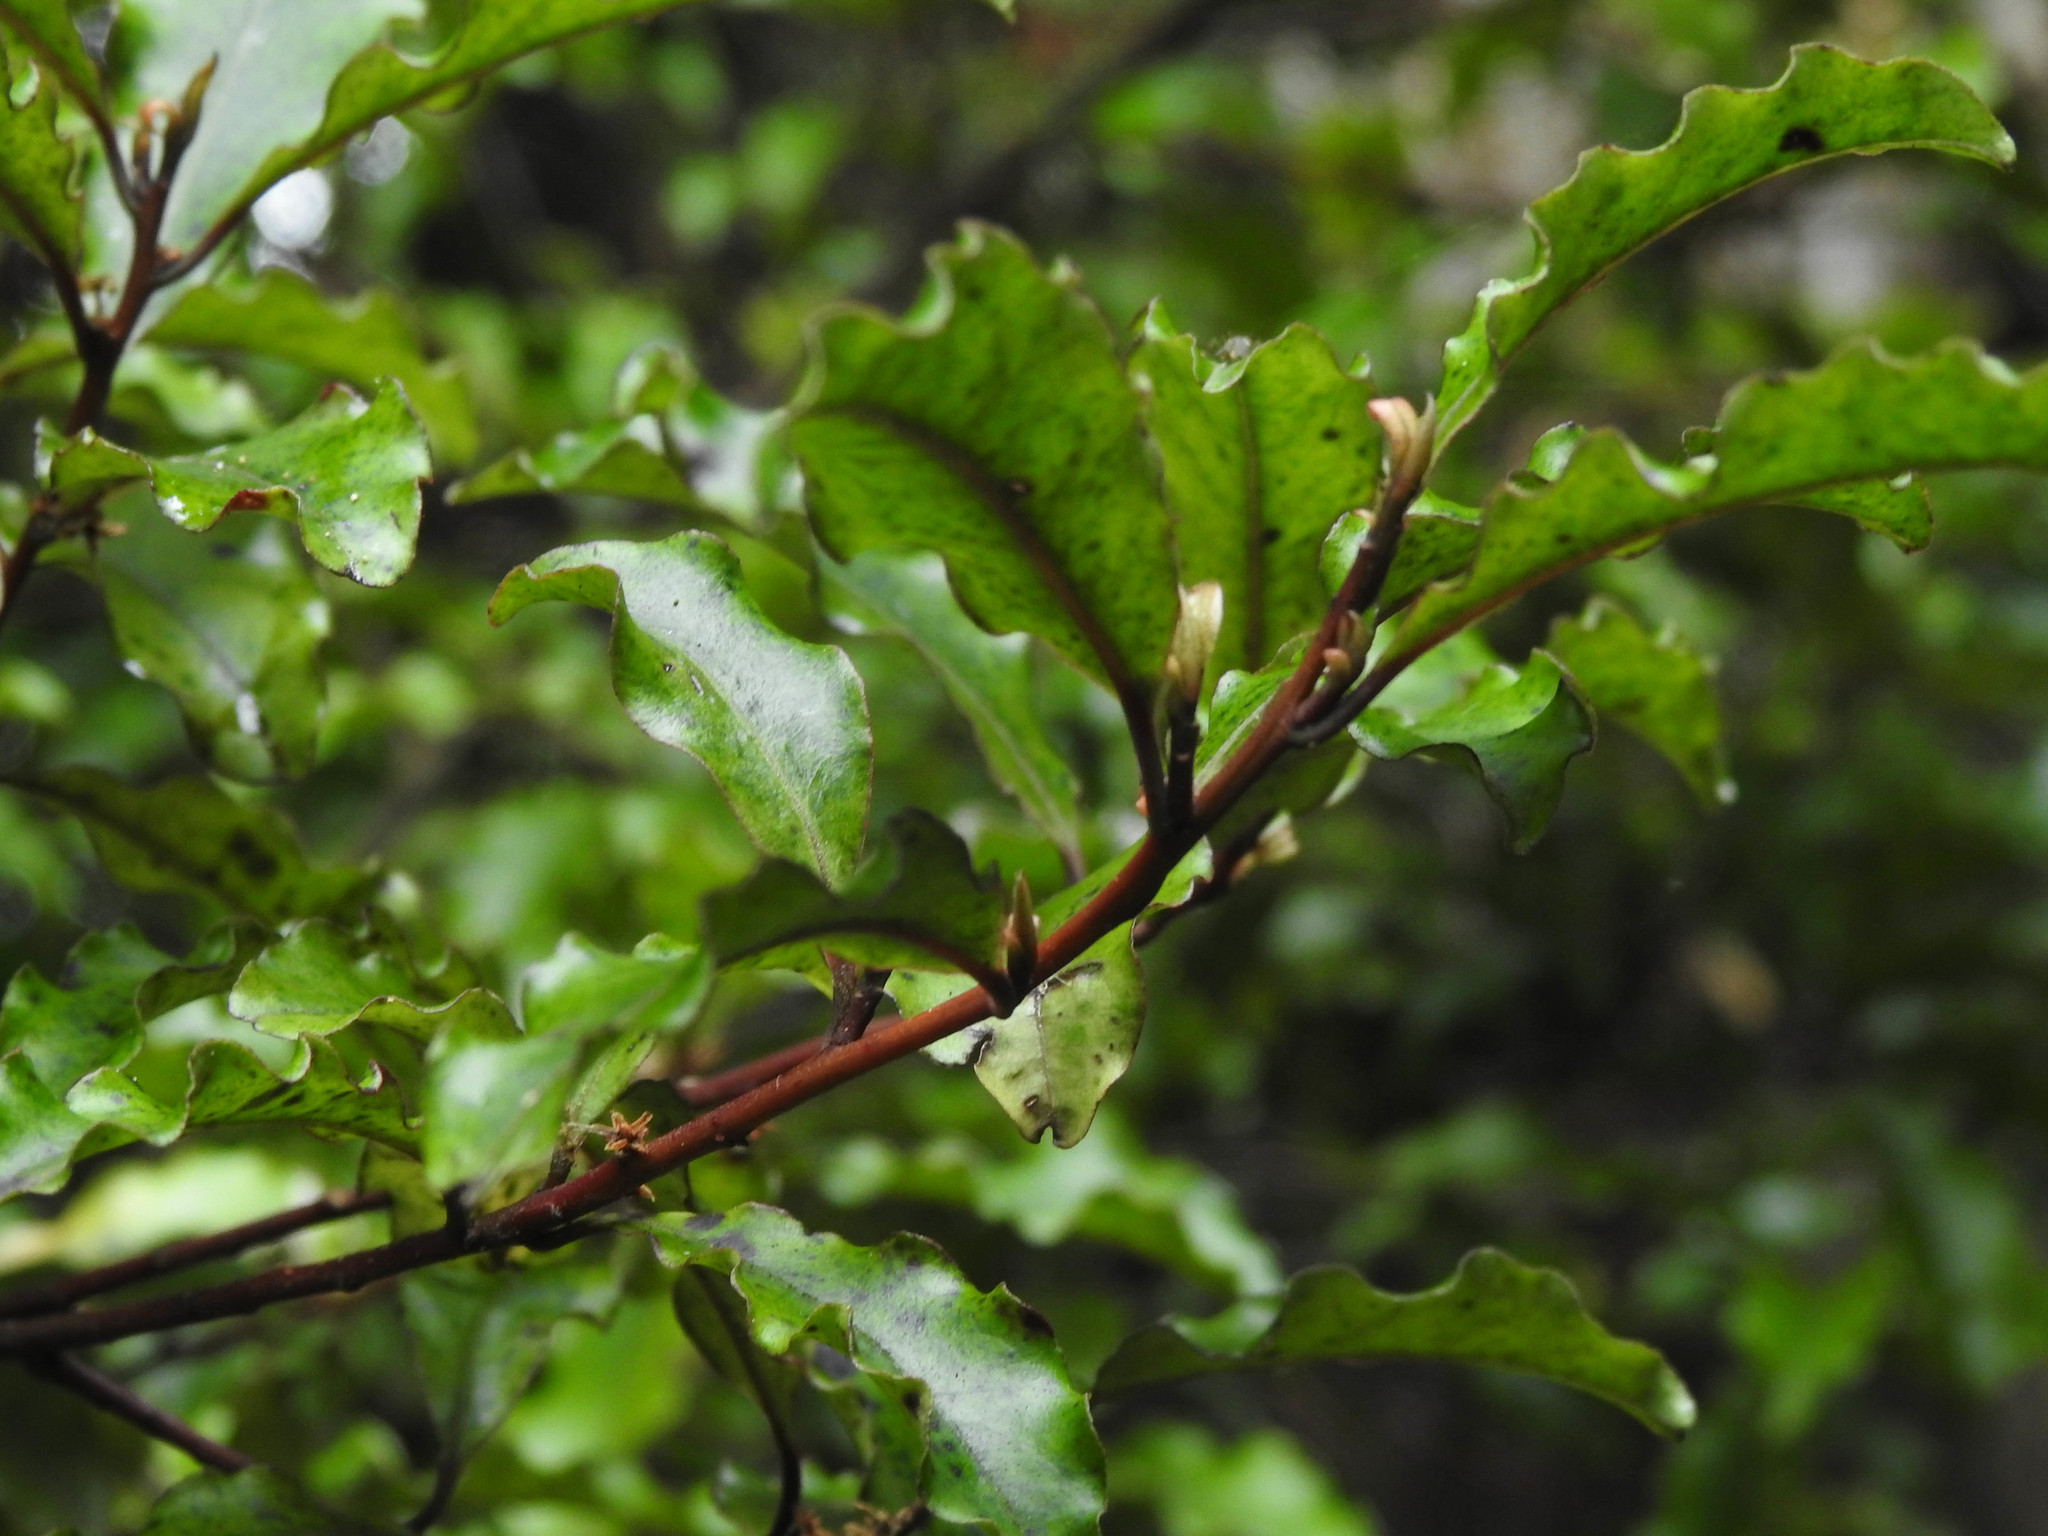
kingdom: Plantae
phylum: Tracheophyta
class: Magnoliopsida
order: Ericales
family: Primulaceae
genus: Myrsine
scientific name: Myrsine australis
